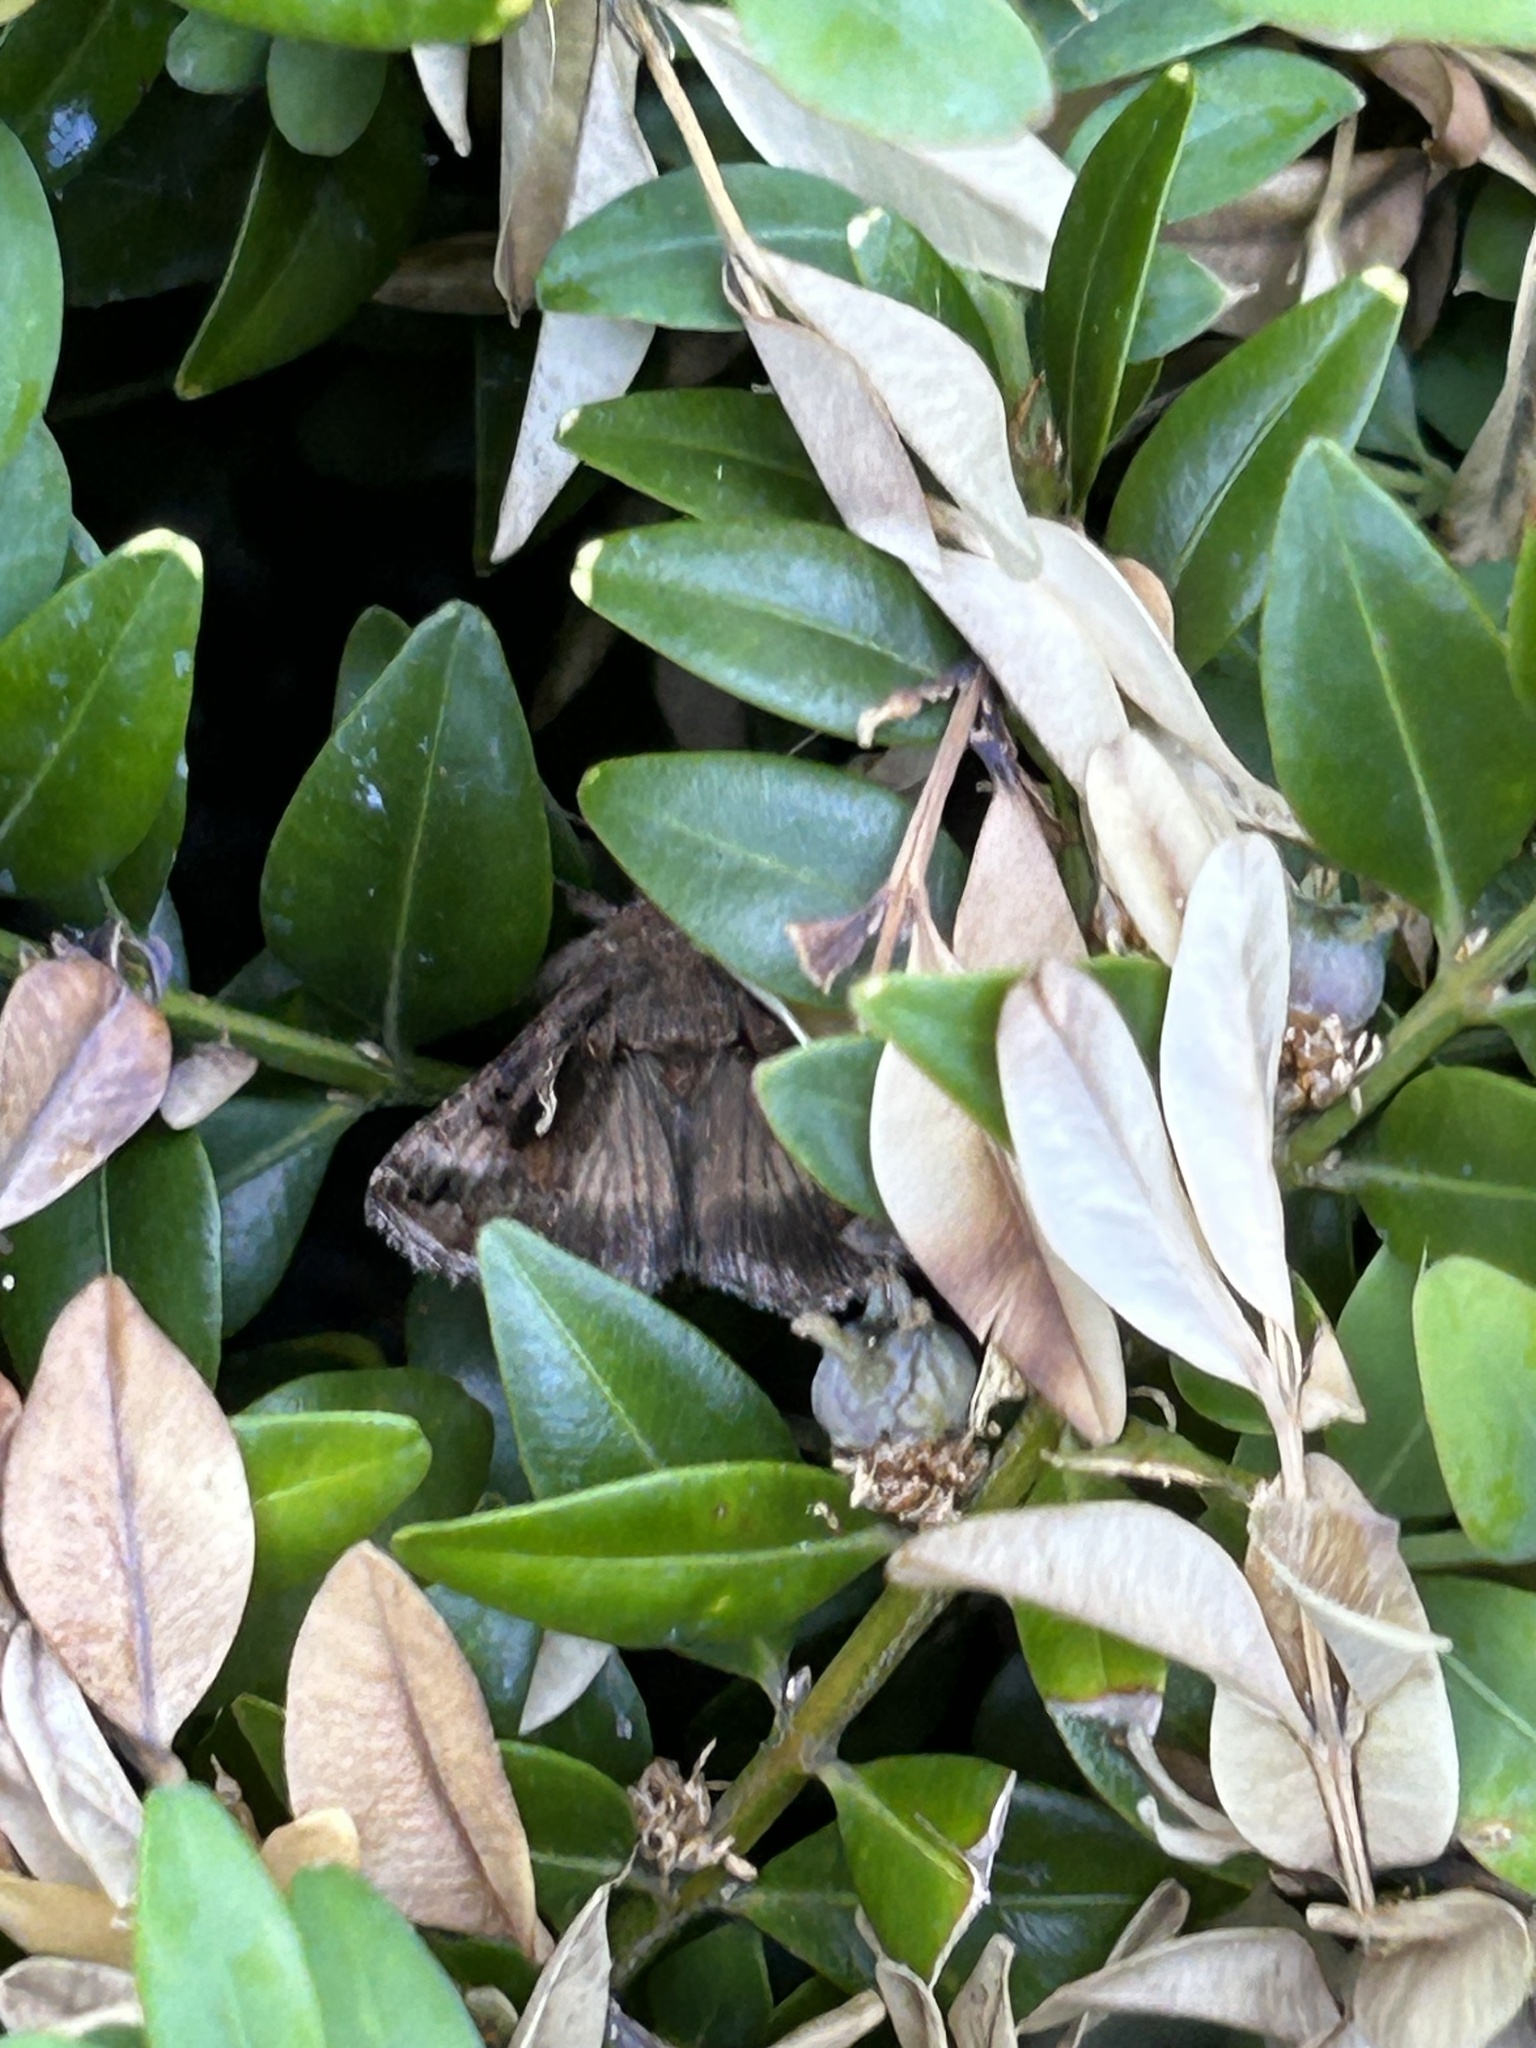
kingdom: Animalia
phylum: Arthropoda
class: Insecta
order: Lepidoptera
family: Noctuidae
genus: Autographa
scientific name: Autographa gamma
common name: Silver y
